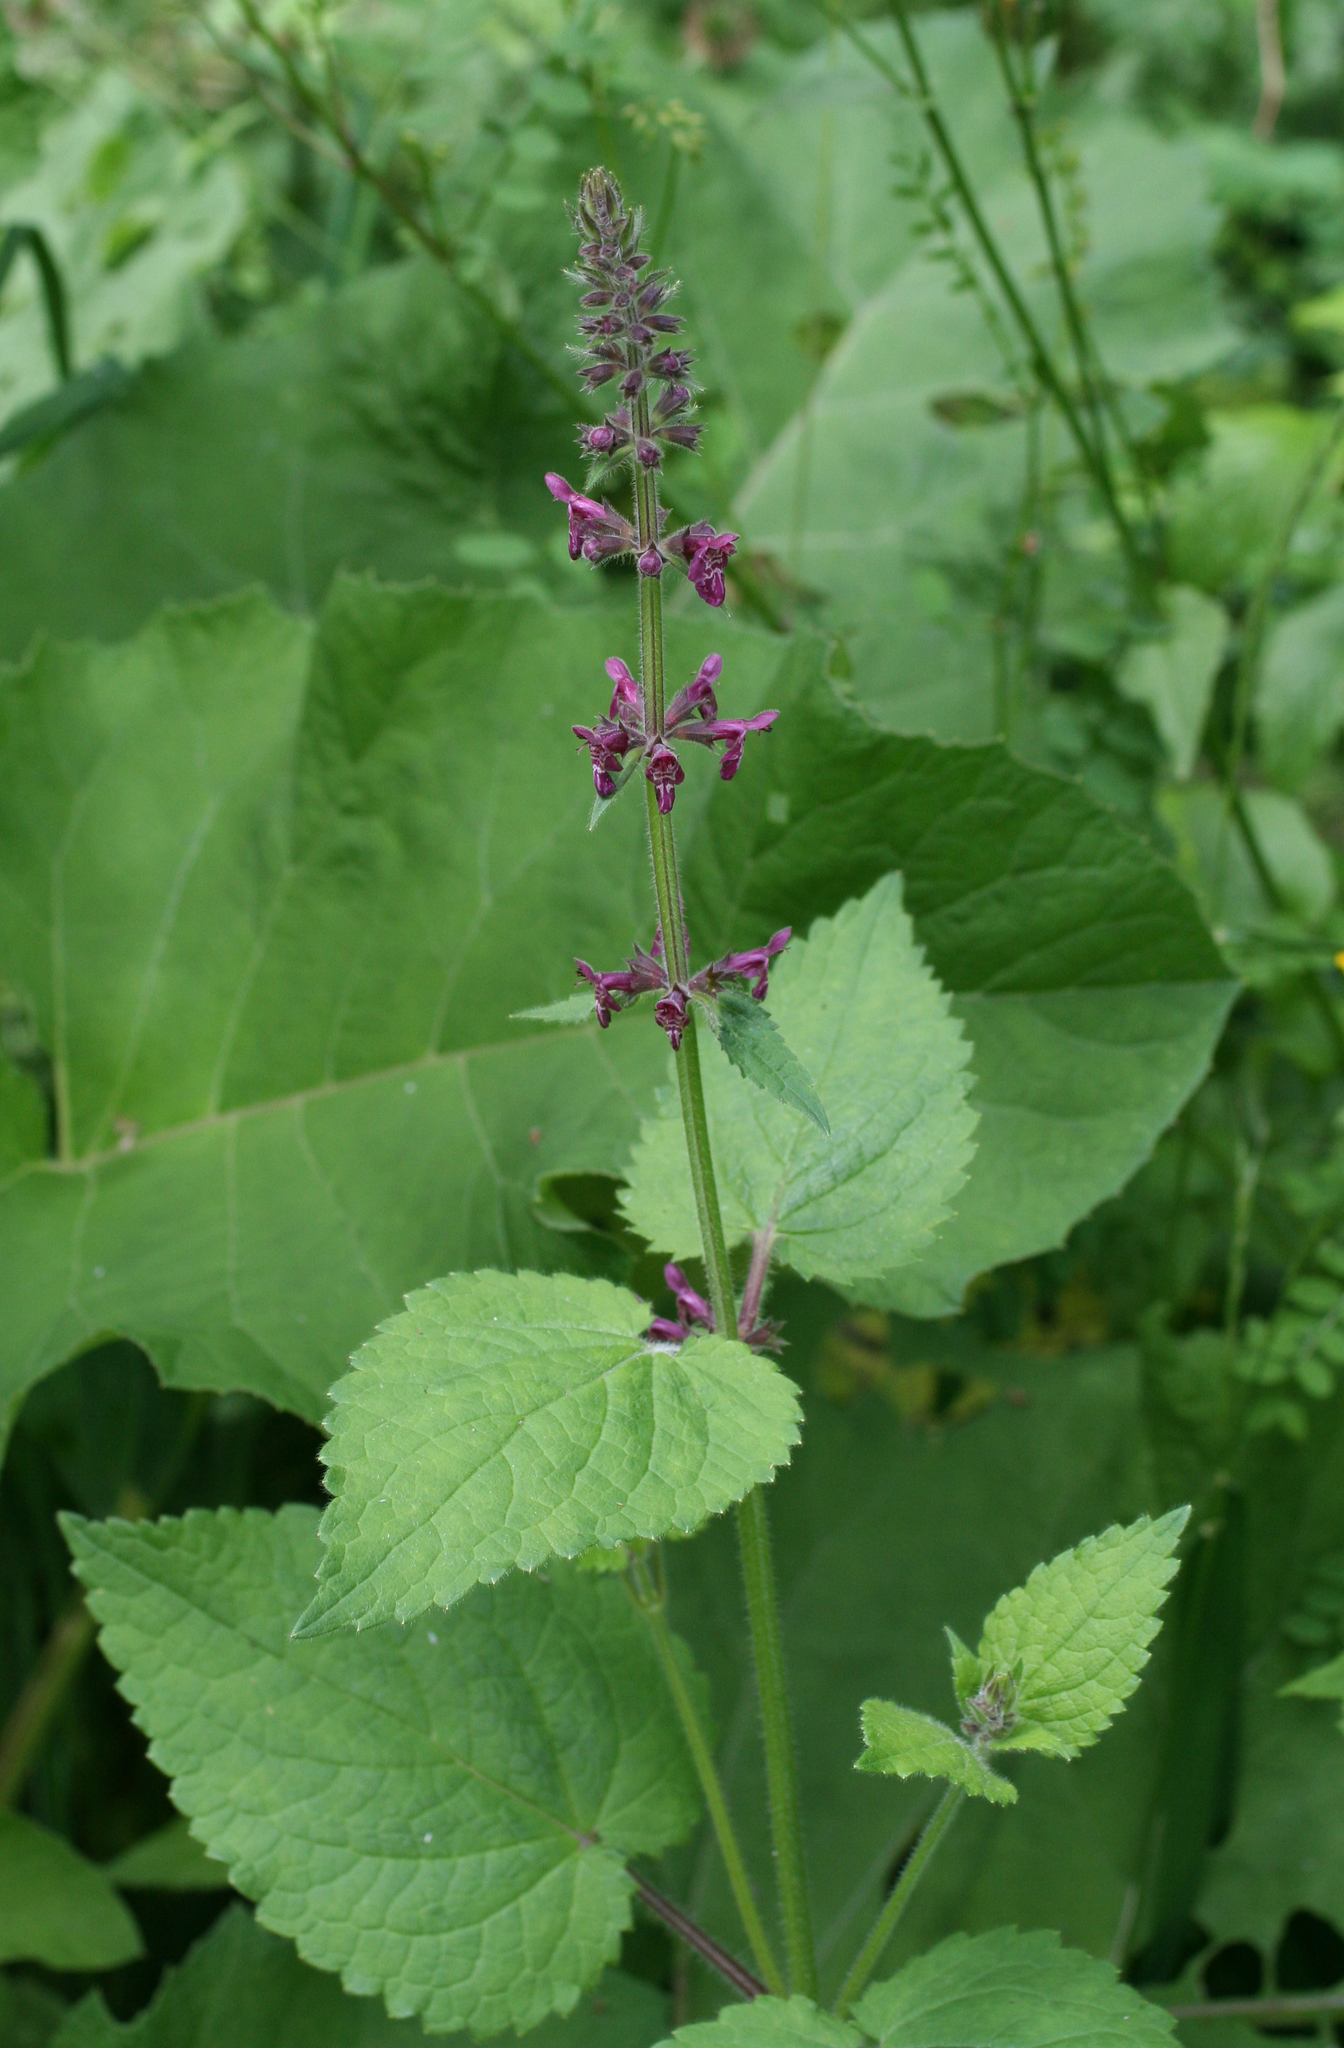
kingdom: Plantae
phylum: Tracheophyta
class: Magnoliopsida
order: Lamiales
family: Lamiaceae
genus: Stachys
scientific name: Stachys sylvatica
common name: Hedge woundwort
